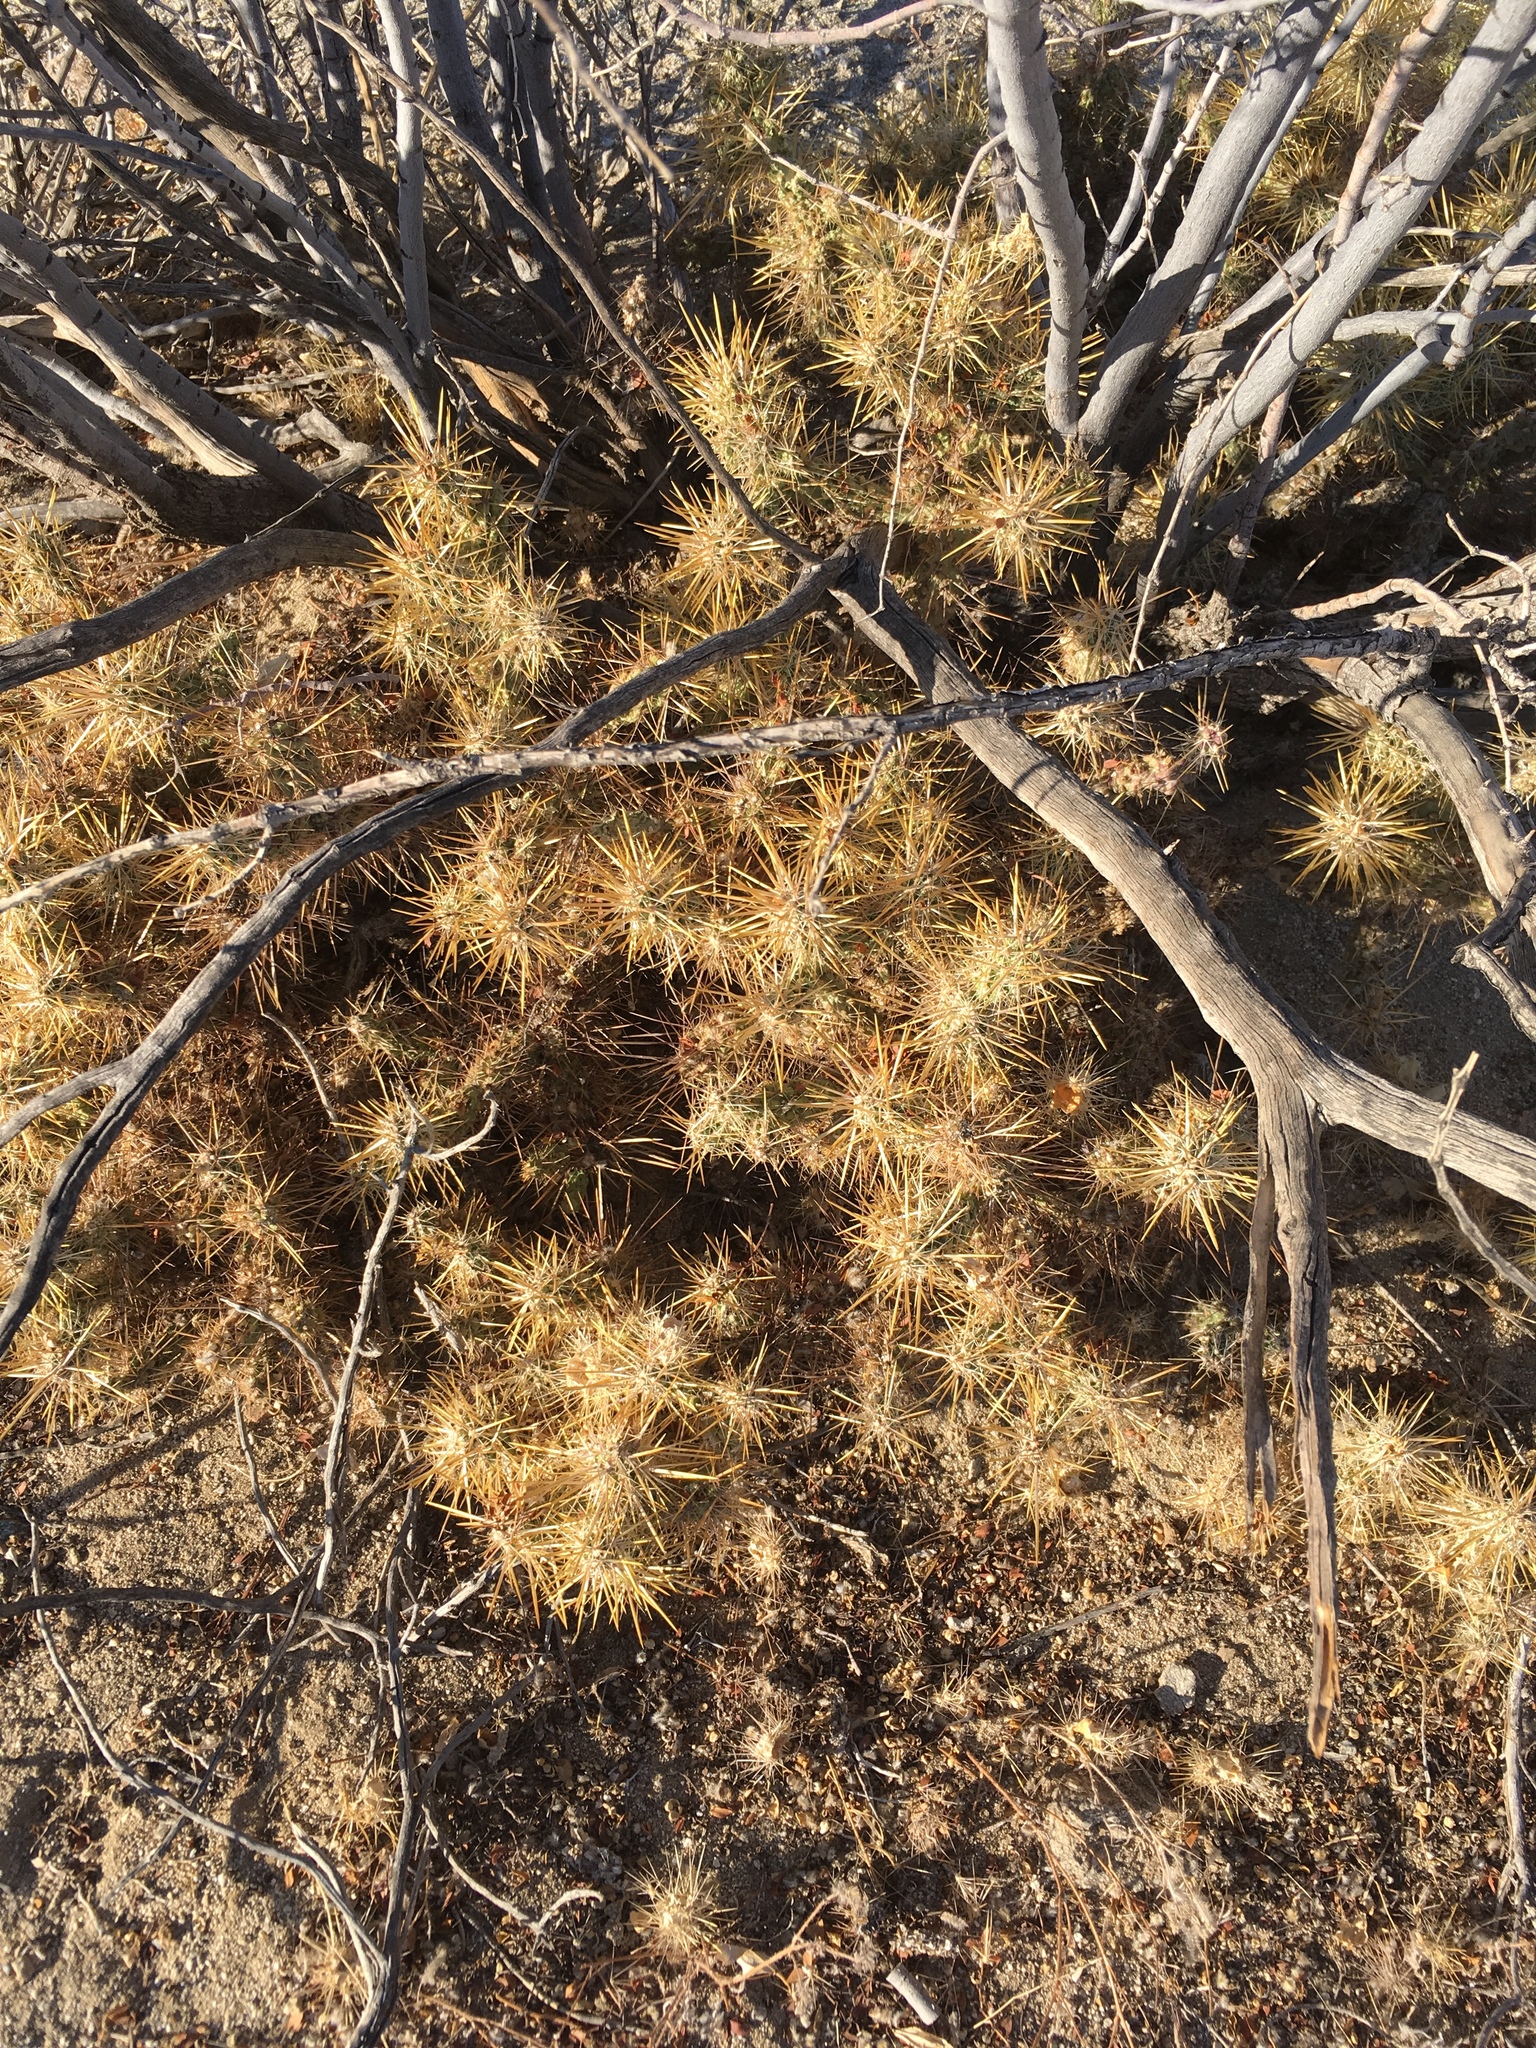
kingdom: Plantae
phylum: Tracheophyta
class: Magnoliopsida
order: Caryophyllales
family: Cactaceae
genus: Cylindropuntia
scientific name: Cylindropuntia echinocarpa
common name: Ground cholla
